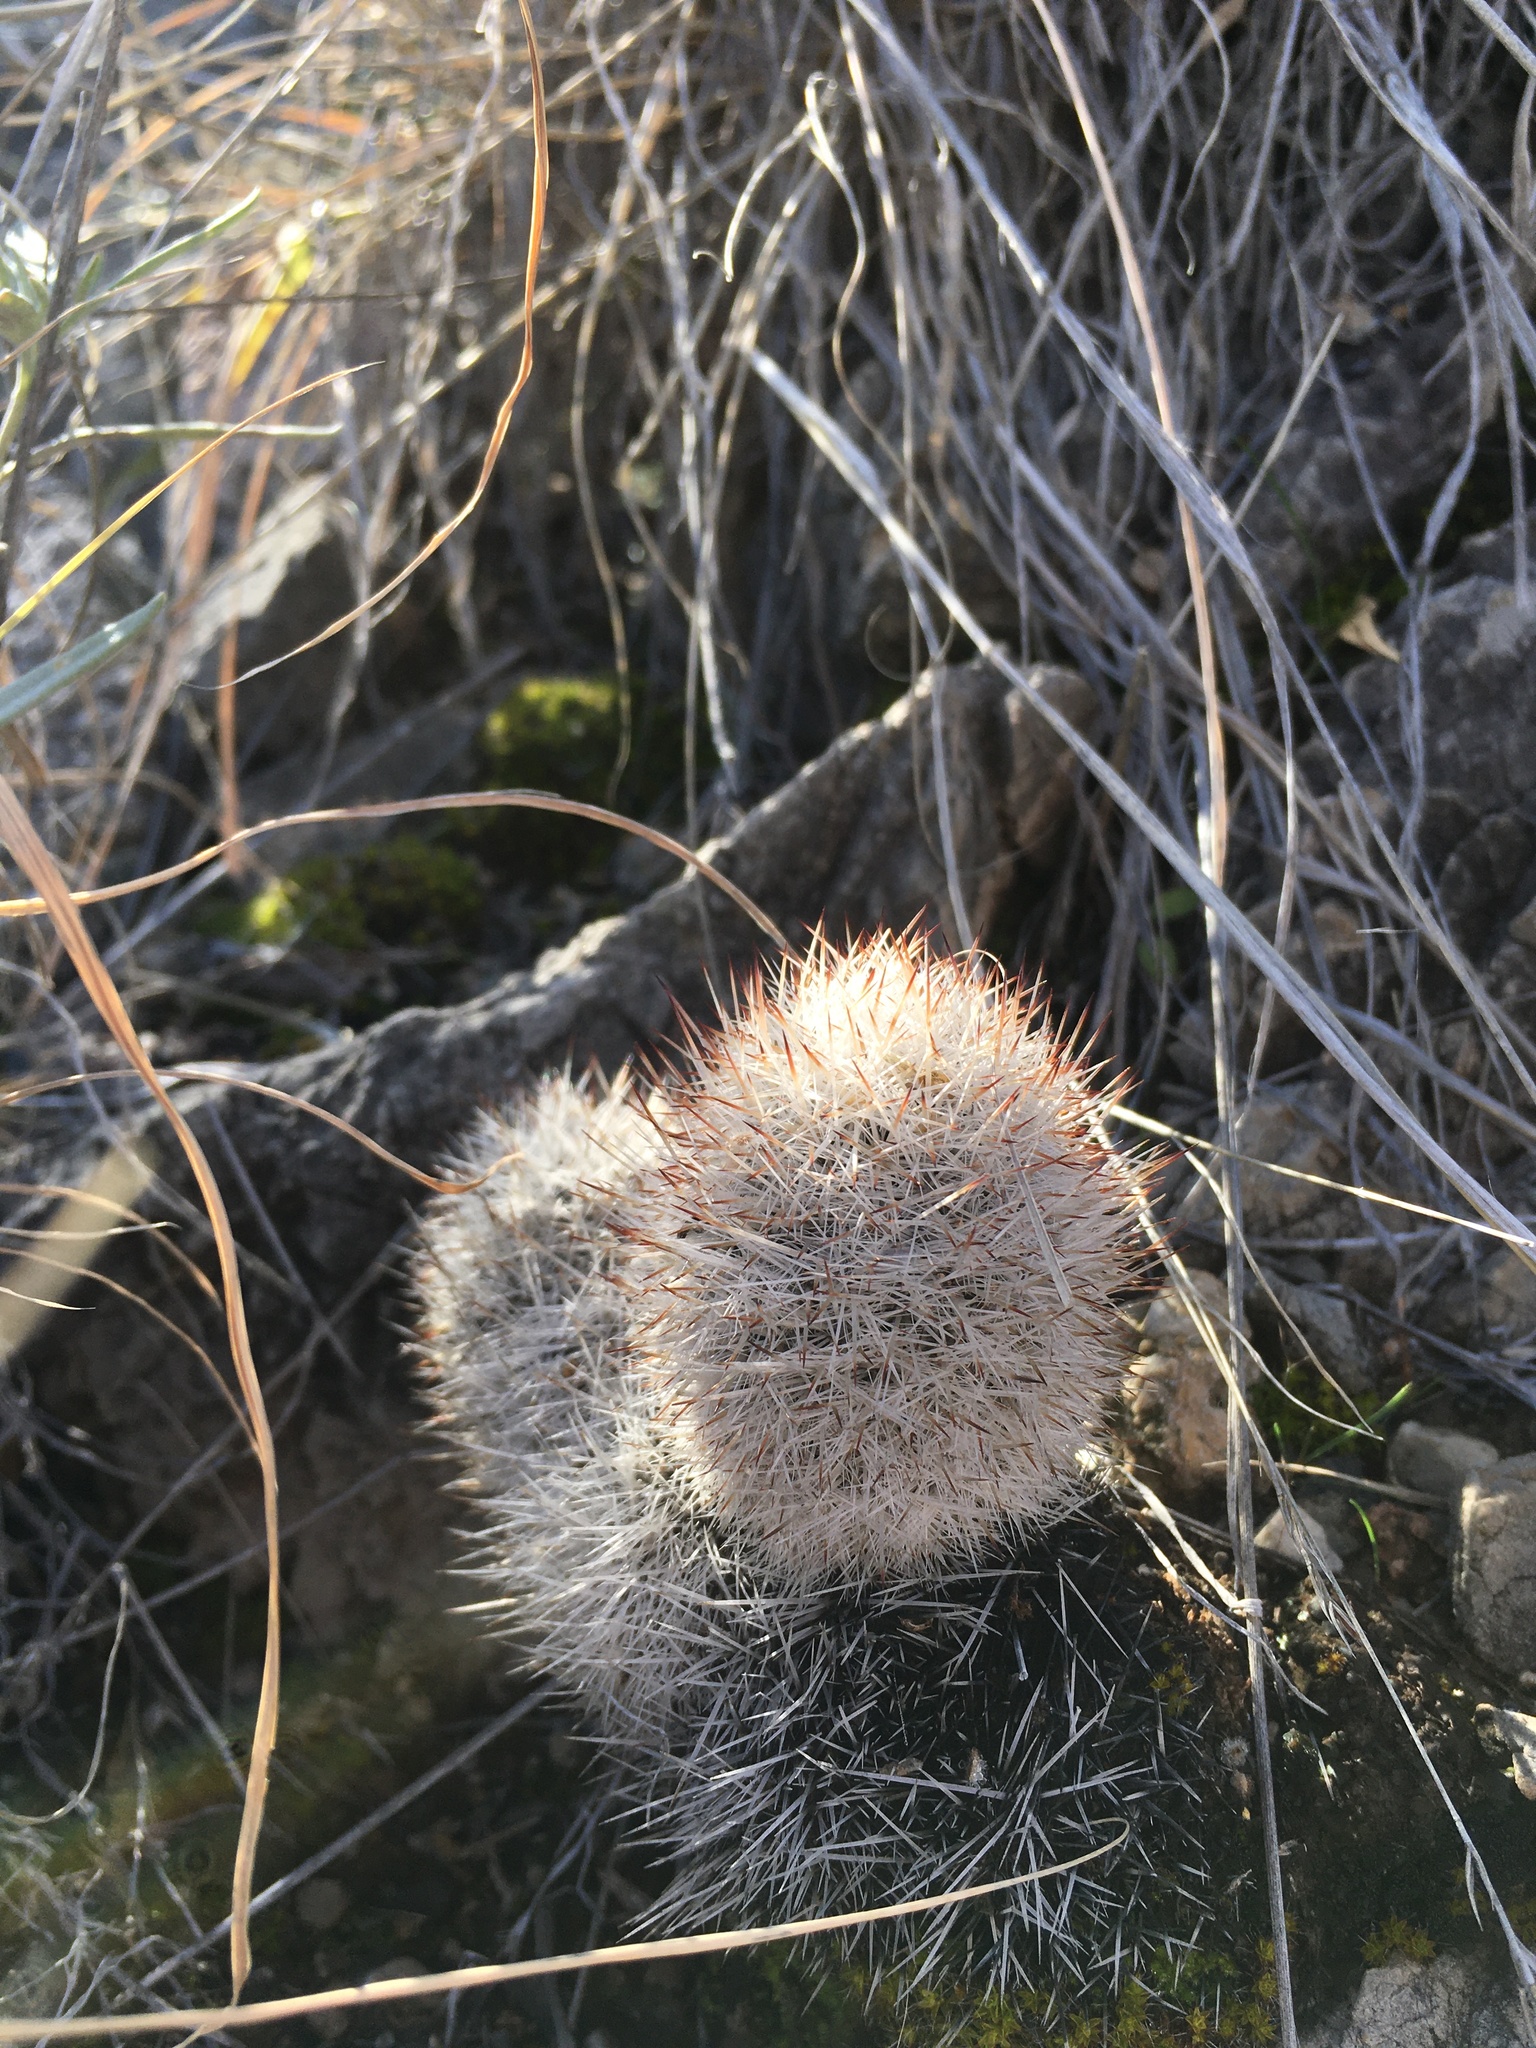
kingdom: Plantae
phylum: Tracheophyta
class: Magnoliopsida
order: Caryophyllales
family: Cactaceae
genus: Pelecyphora
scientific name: Pelecyphora sneedii
